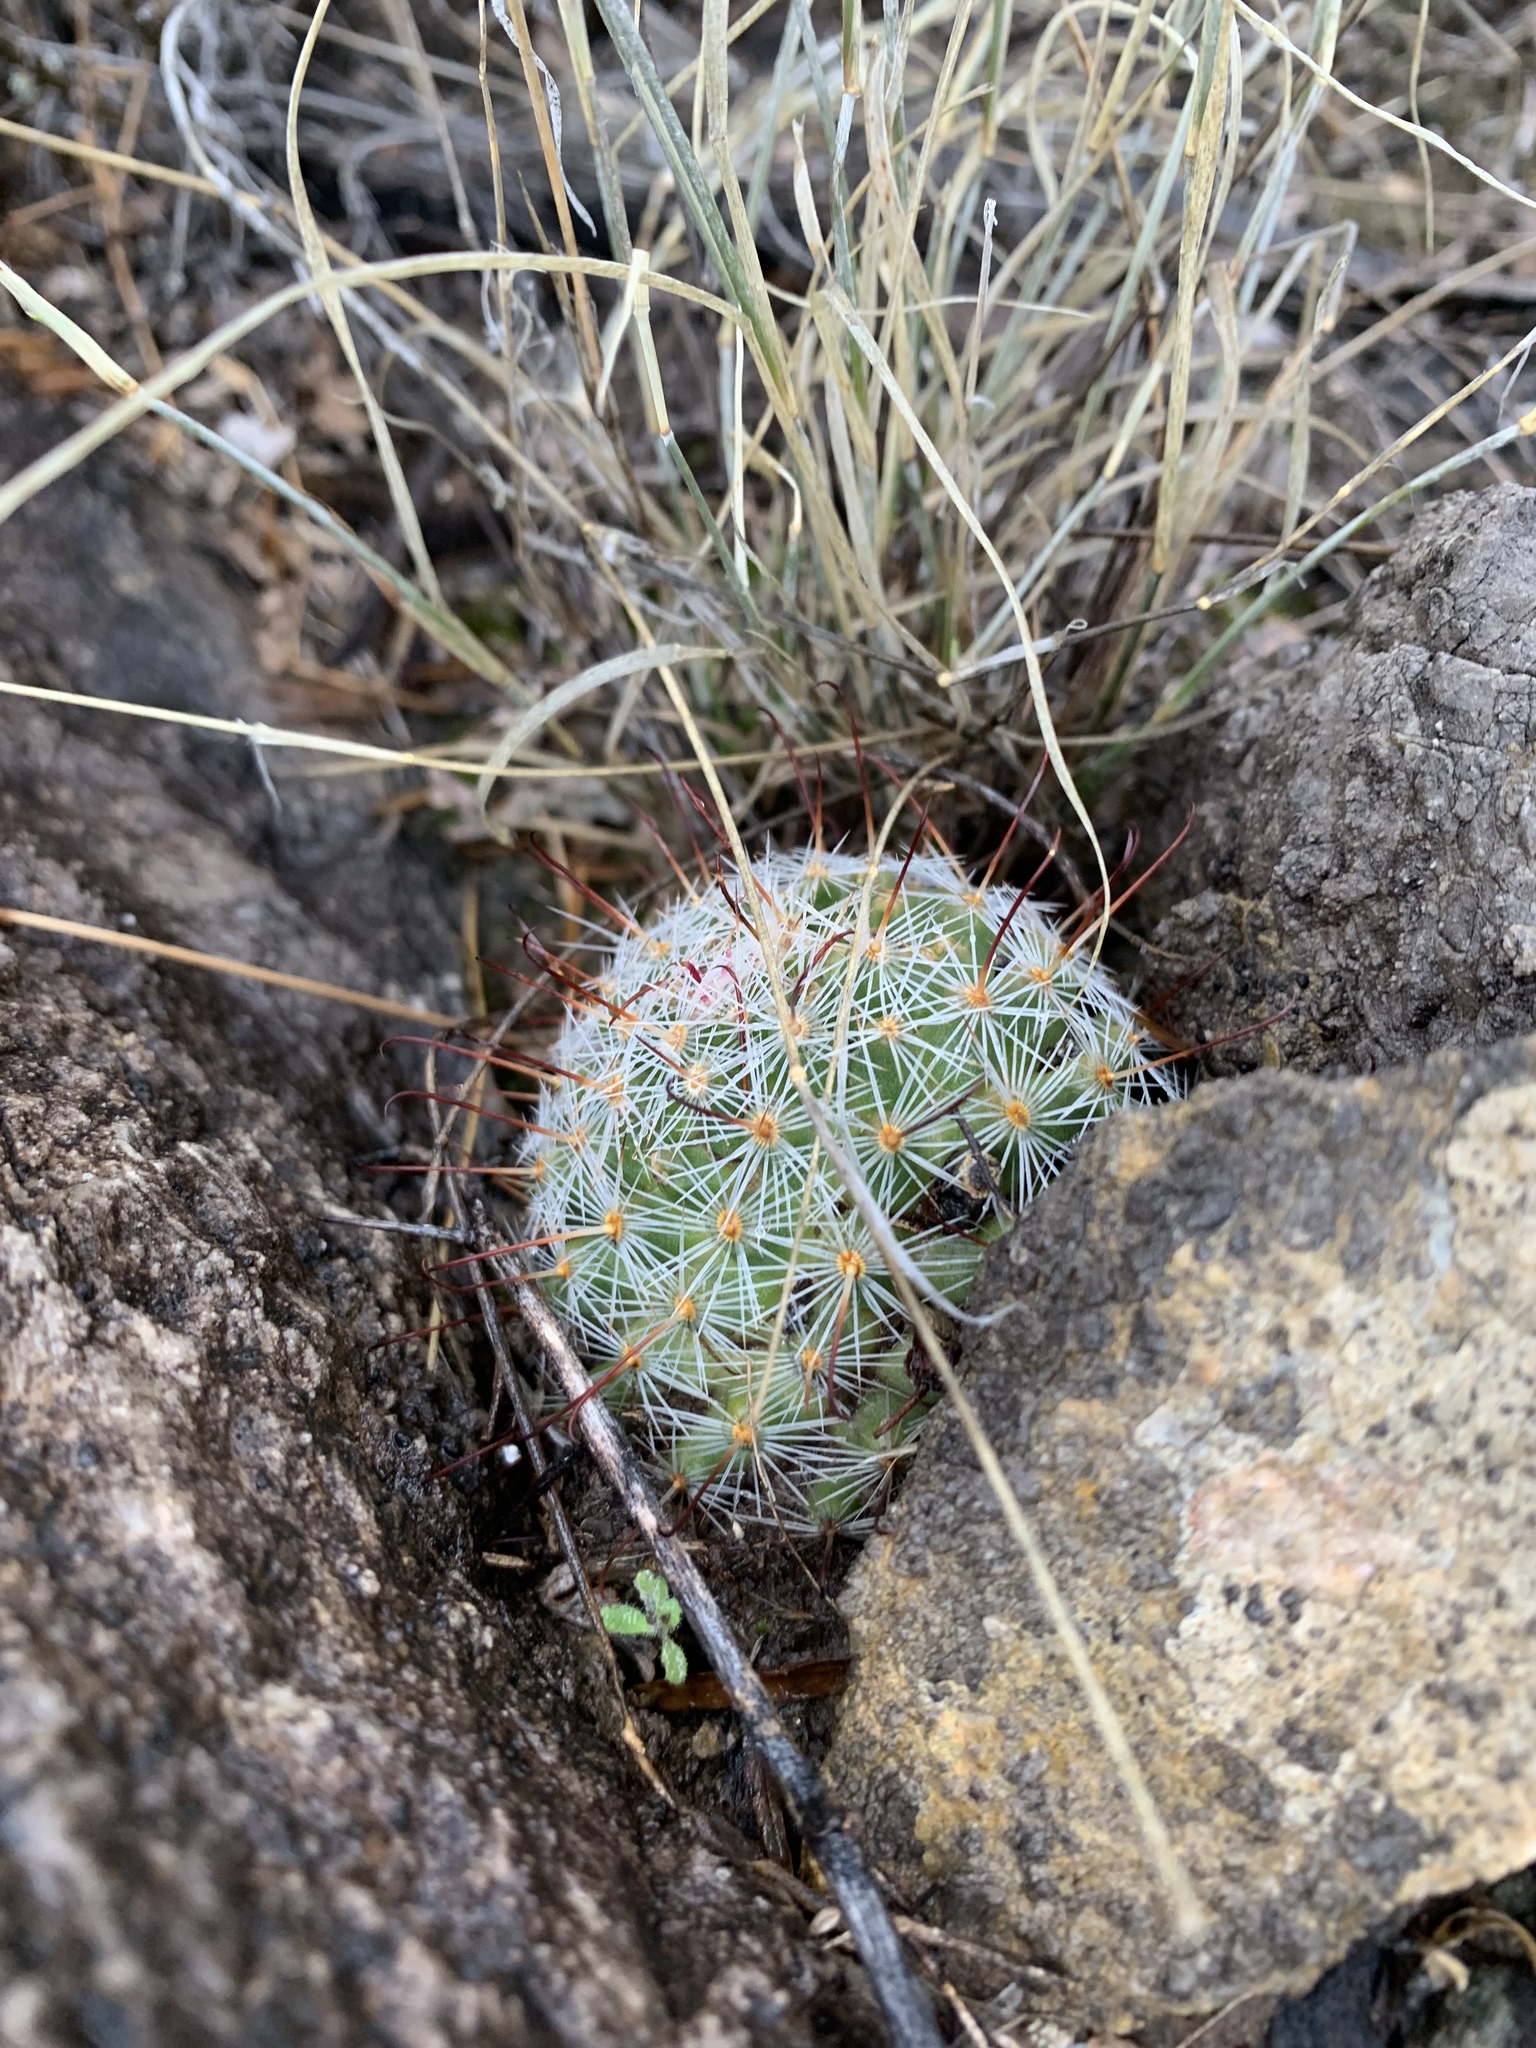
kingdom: Plantae
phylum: Tracheophyta
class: Magnoliopsida
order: Caryophyllales
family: Cactaceae
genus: Cochemiea
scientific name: Cochemiea grahamii
